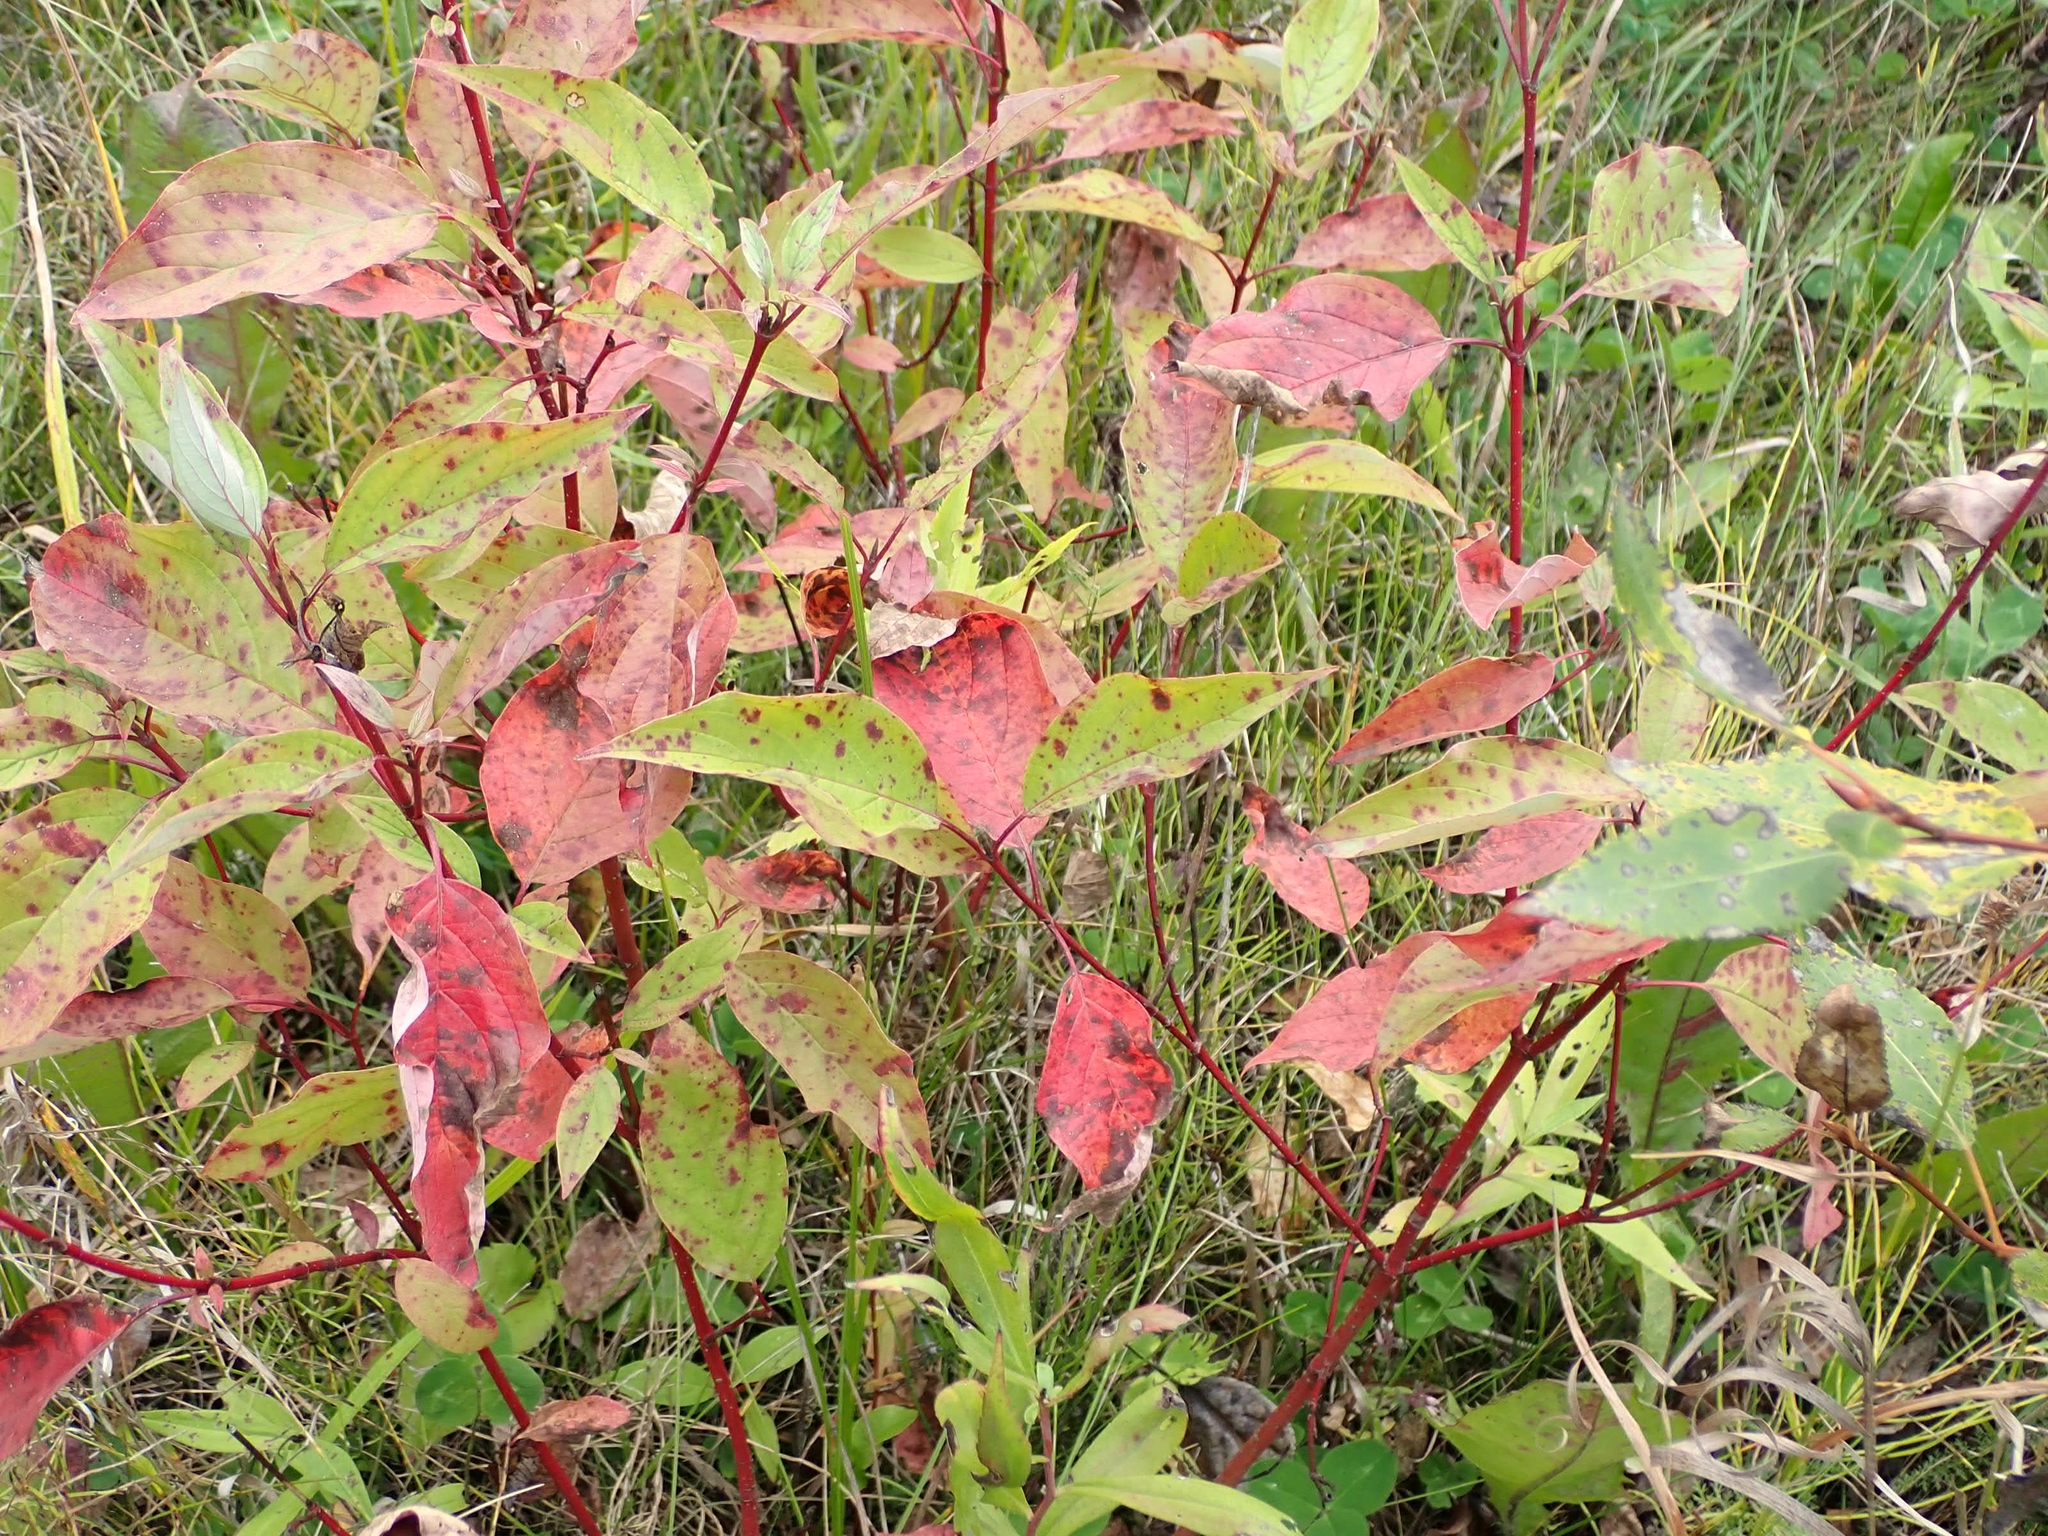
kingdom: Plantae
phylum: Tracheophyta
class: Magnoliopsida
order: Cornales
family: Cornaceae
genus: Cornus
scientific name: Cornus sericea
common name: Red-osier dogwood
